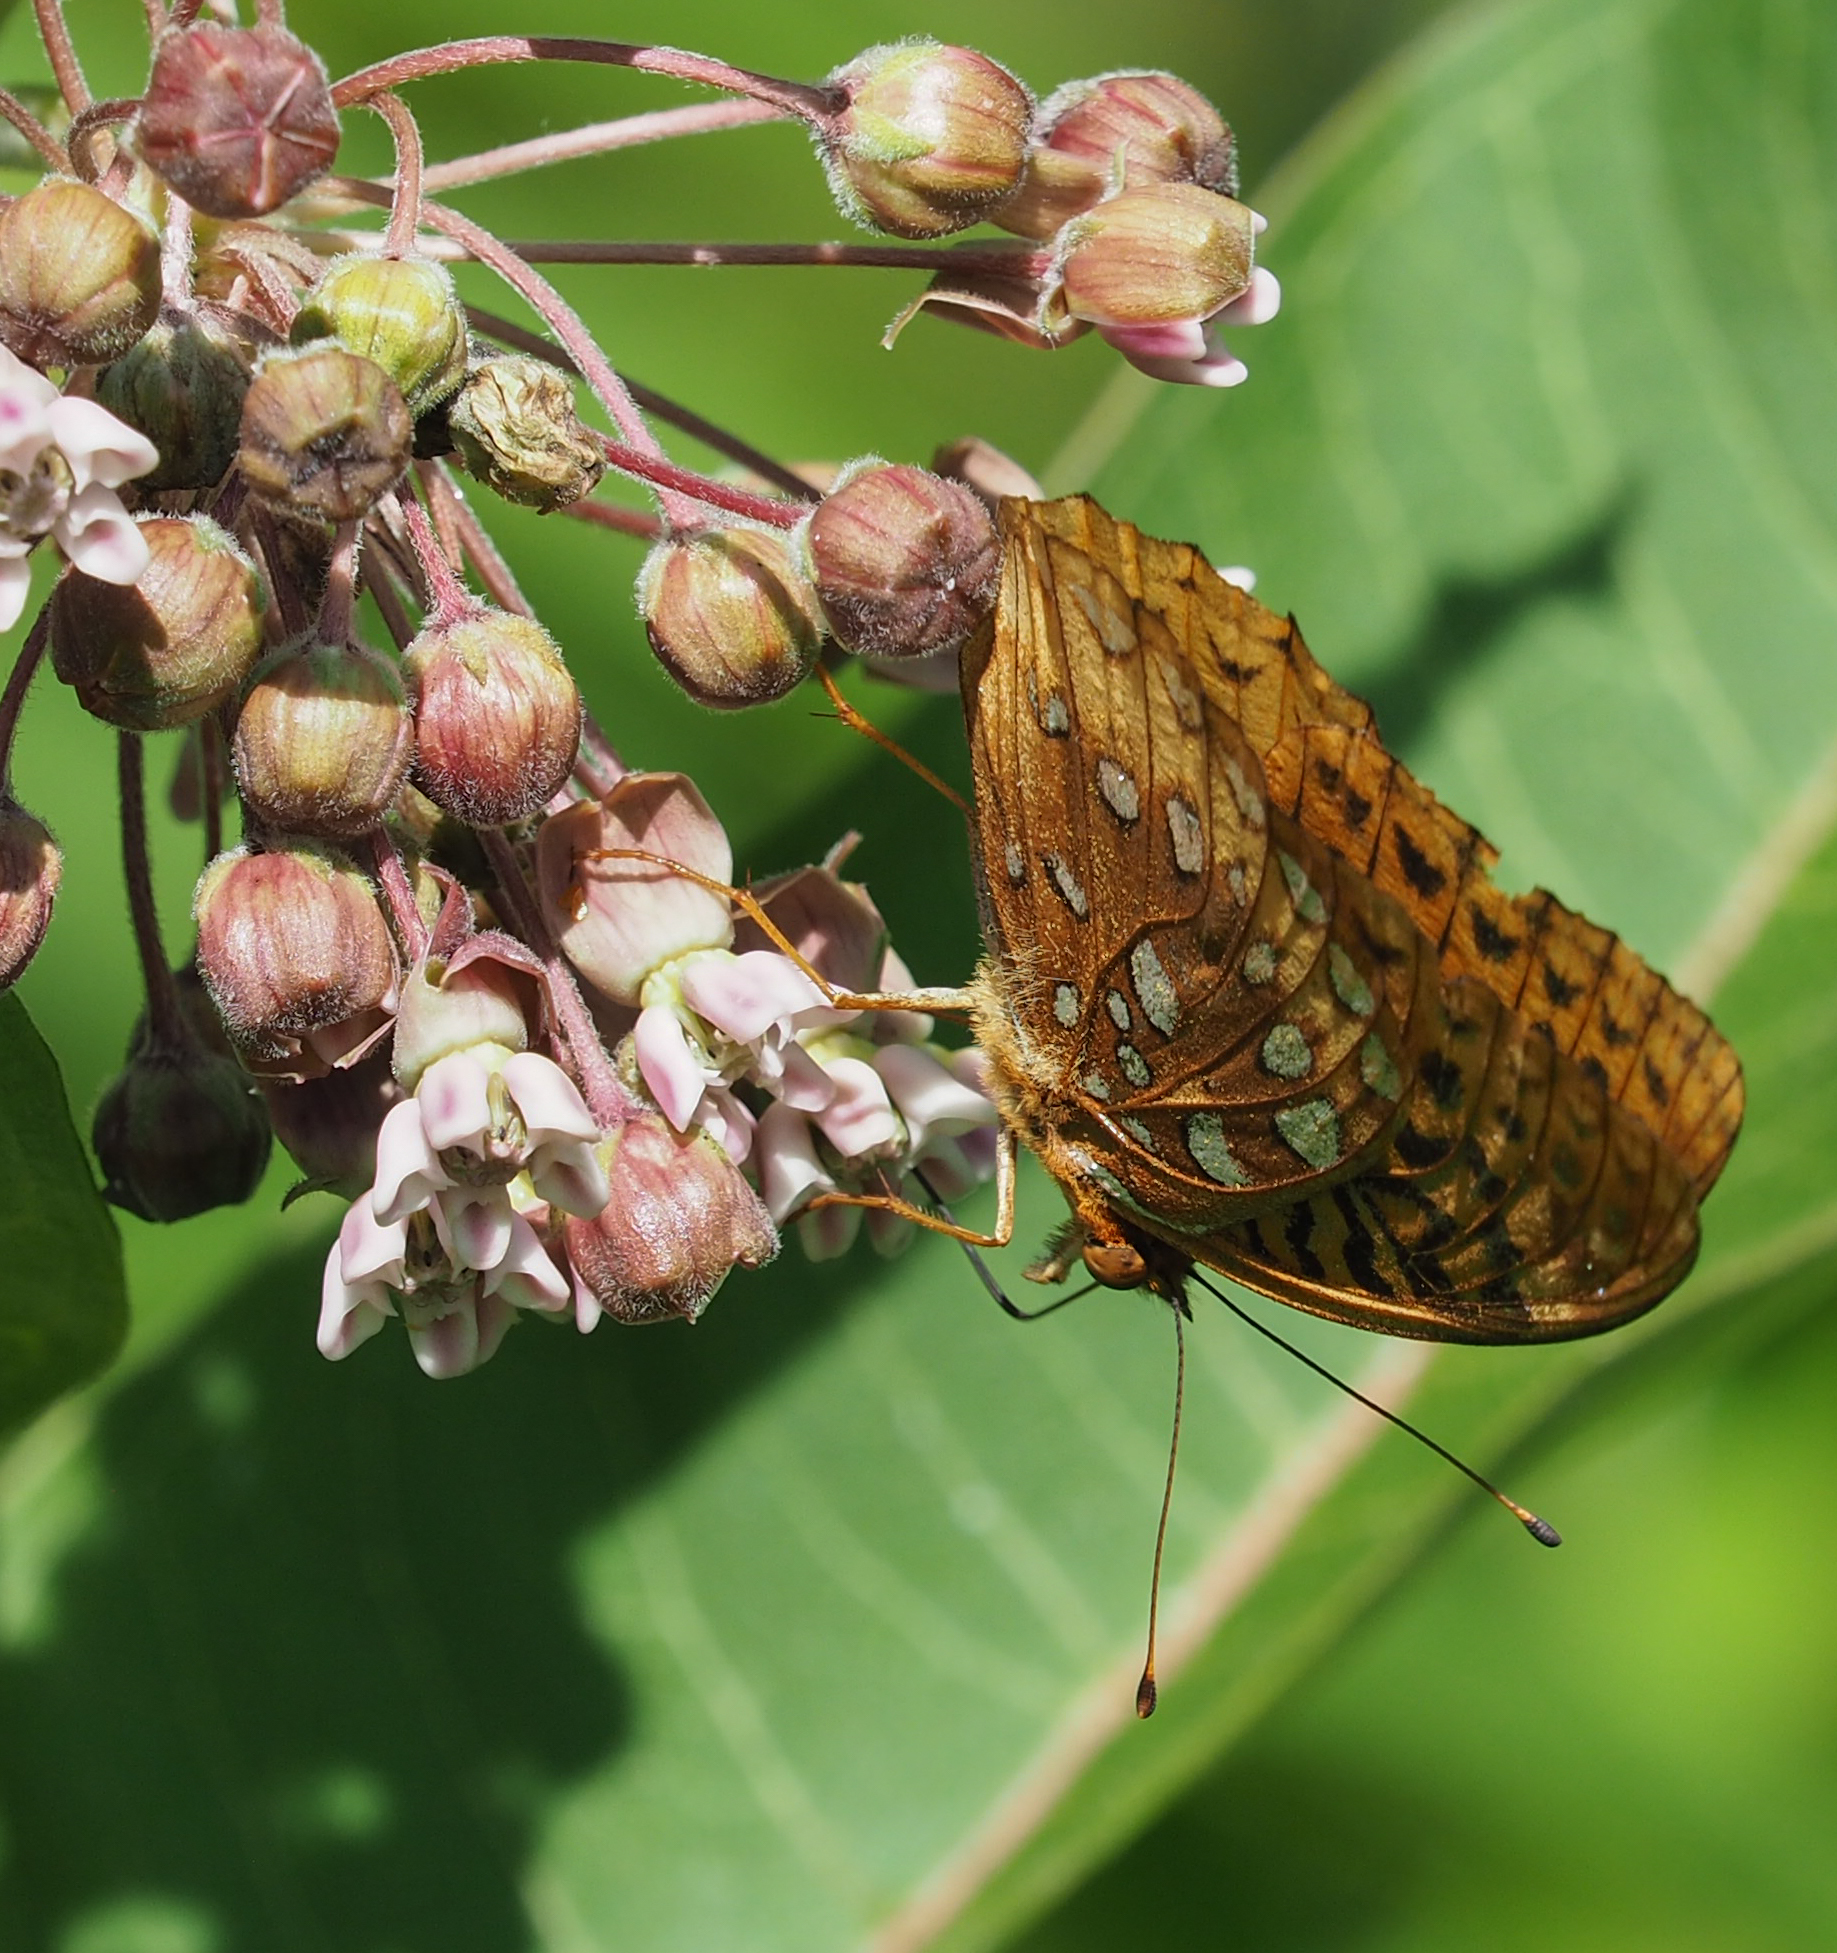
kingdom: Animalia
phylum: Arthropoda
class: Insecta
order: Lepidoptera
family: Nymphalidae
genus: Speyeria
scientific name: Speyeria cybele
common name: Great spangled fritillary
